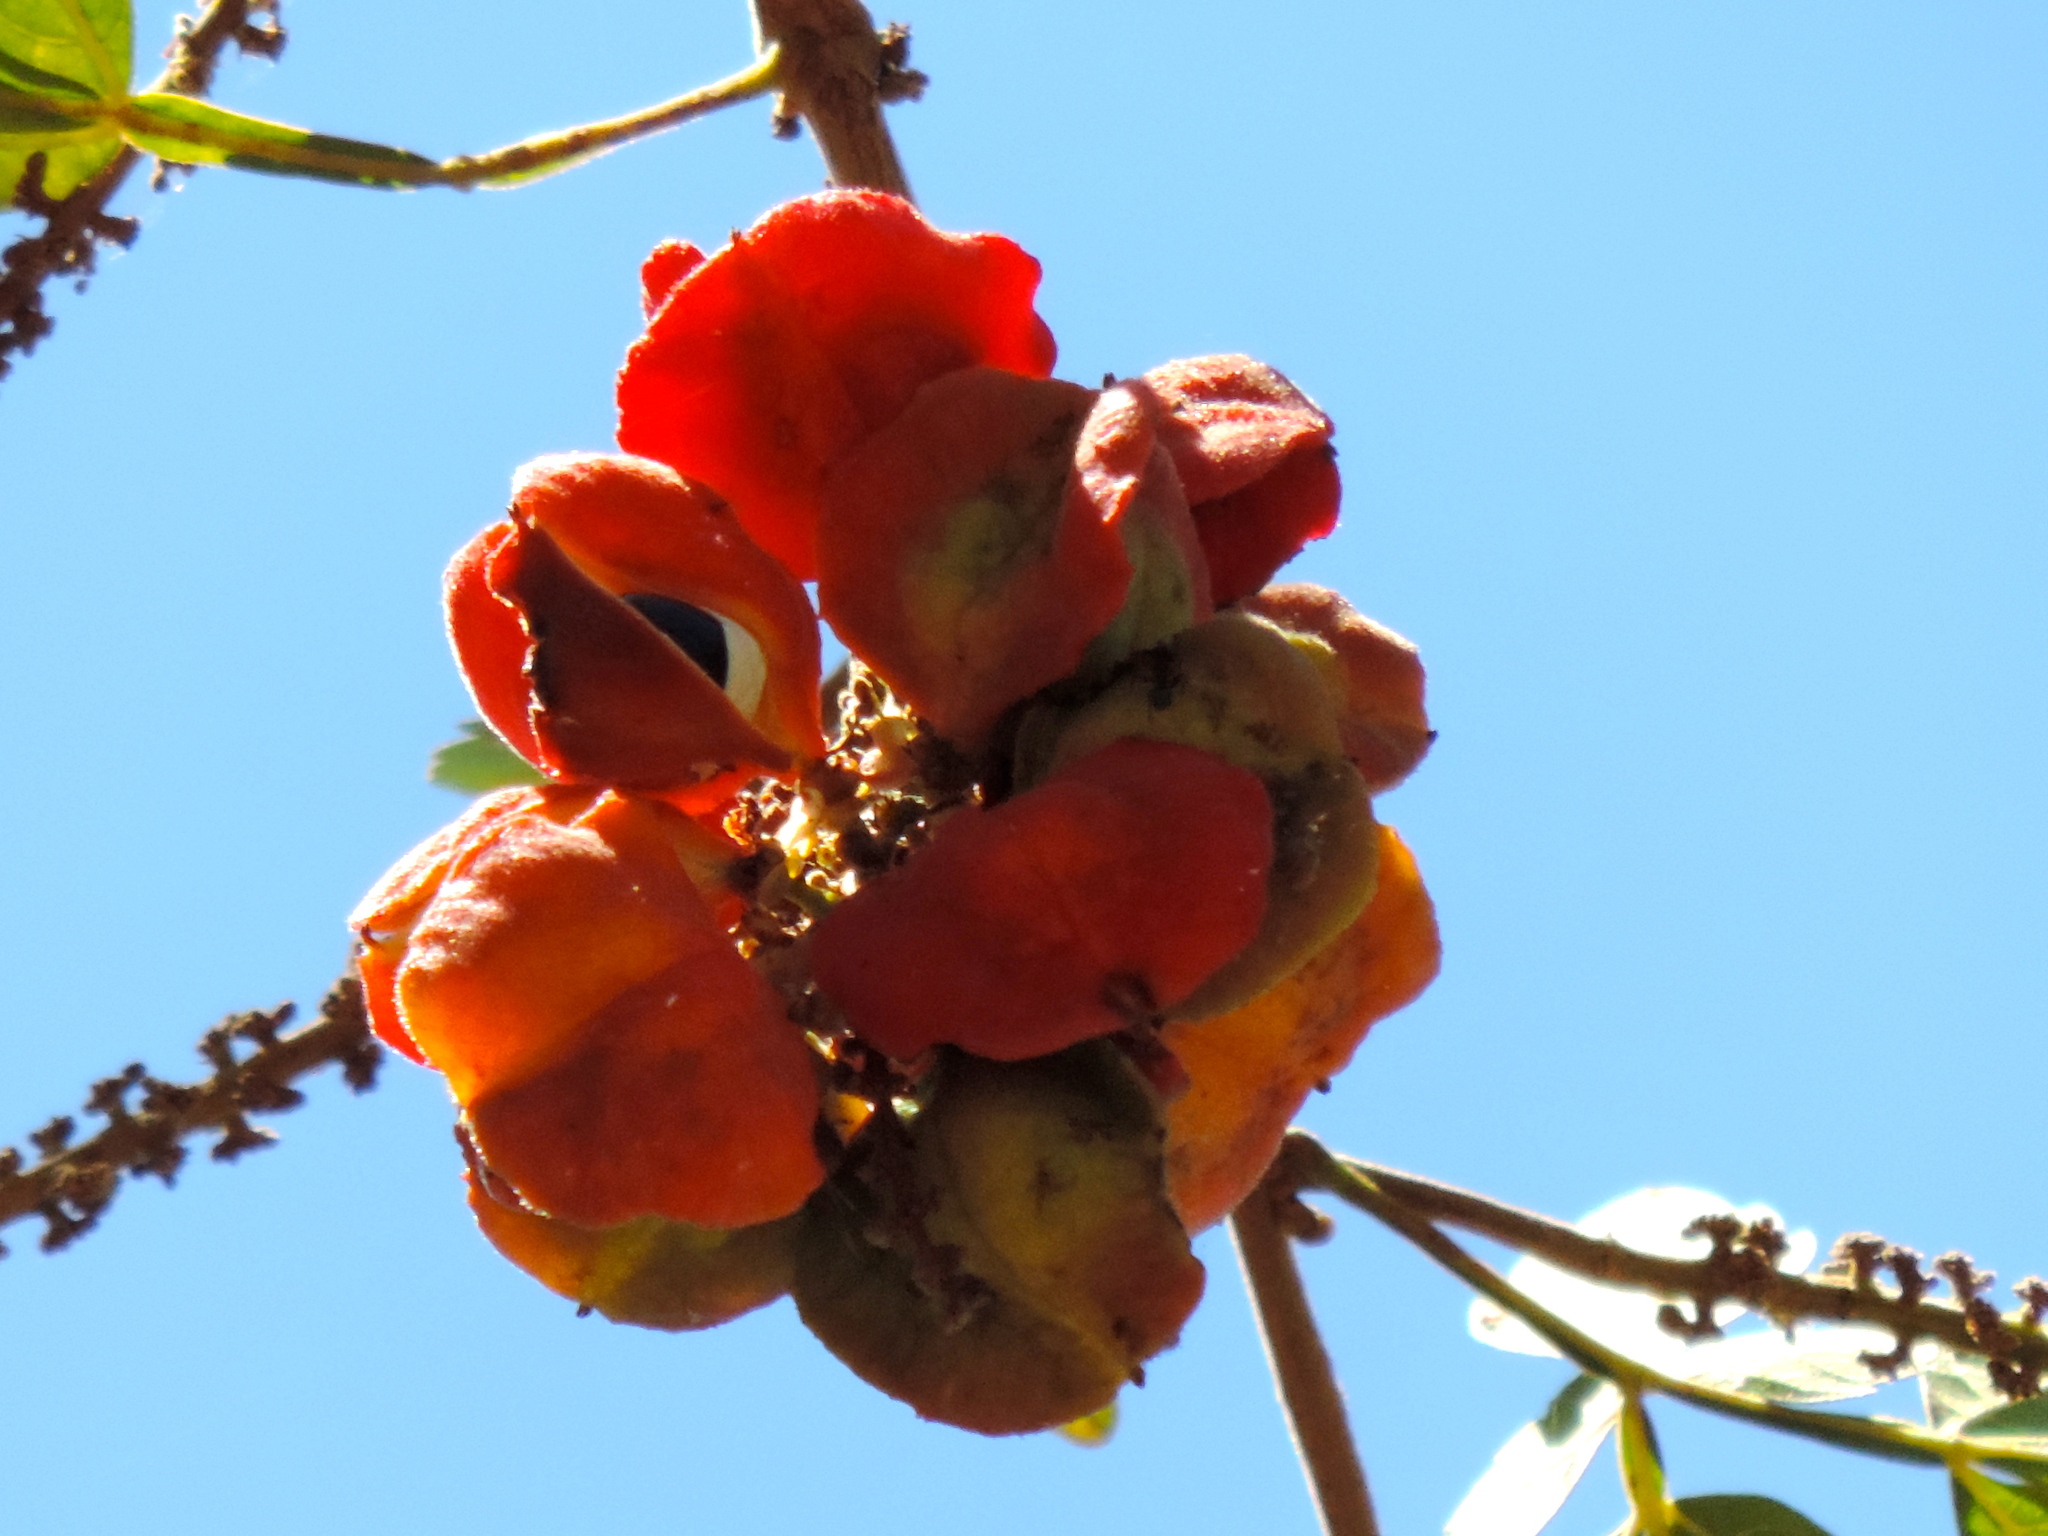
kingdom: Plantae
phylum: Tracheophyta
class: Magnoliopsida
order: Fabales
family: Fabaceae
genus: Pithecellobium
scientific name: Pithecellobium lanceolatum
